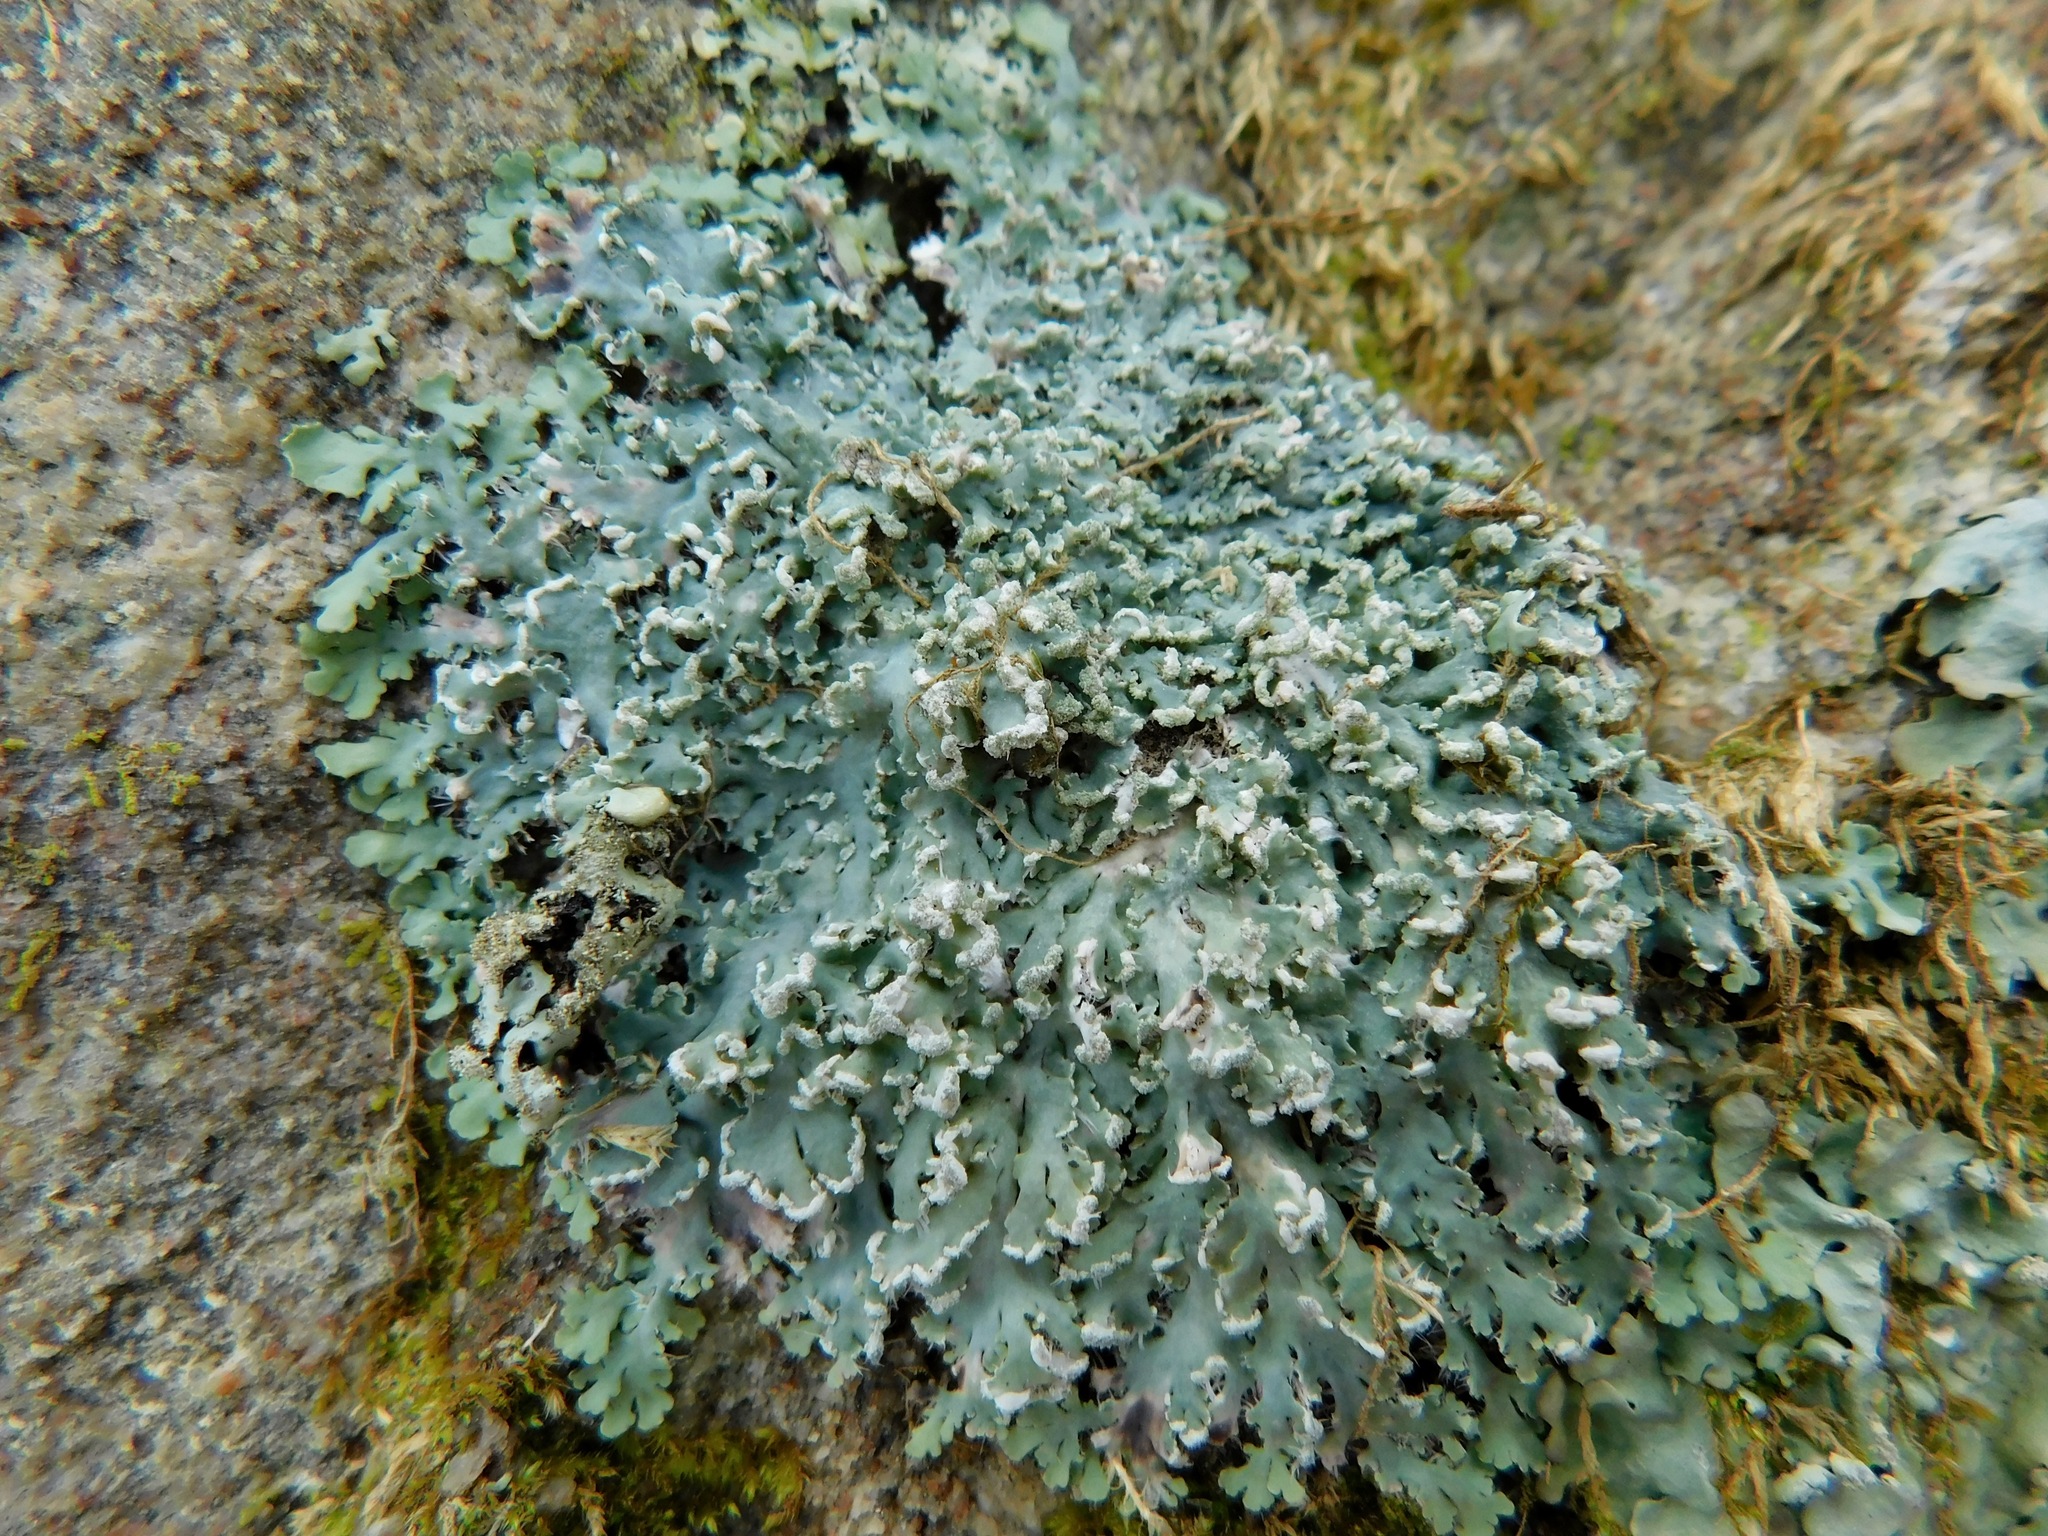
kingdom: Fungi
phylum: Ascomycota
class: Lecanoromycetes
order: Caliciales
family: Physciaceae
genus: Polyblastidium
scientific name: Polyblastidium casarettianum
